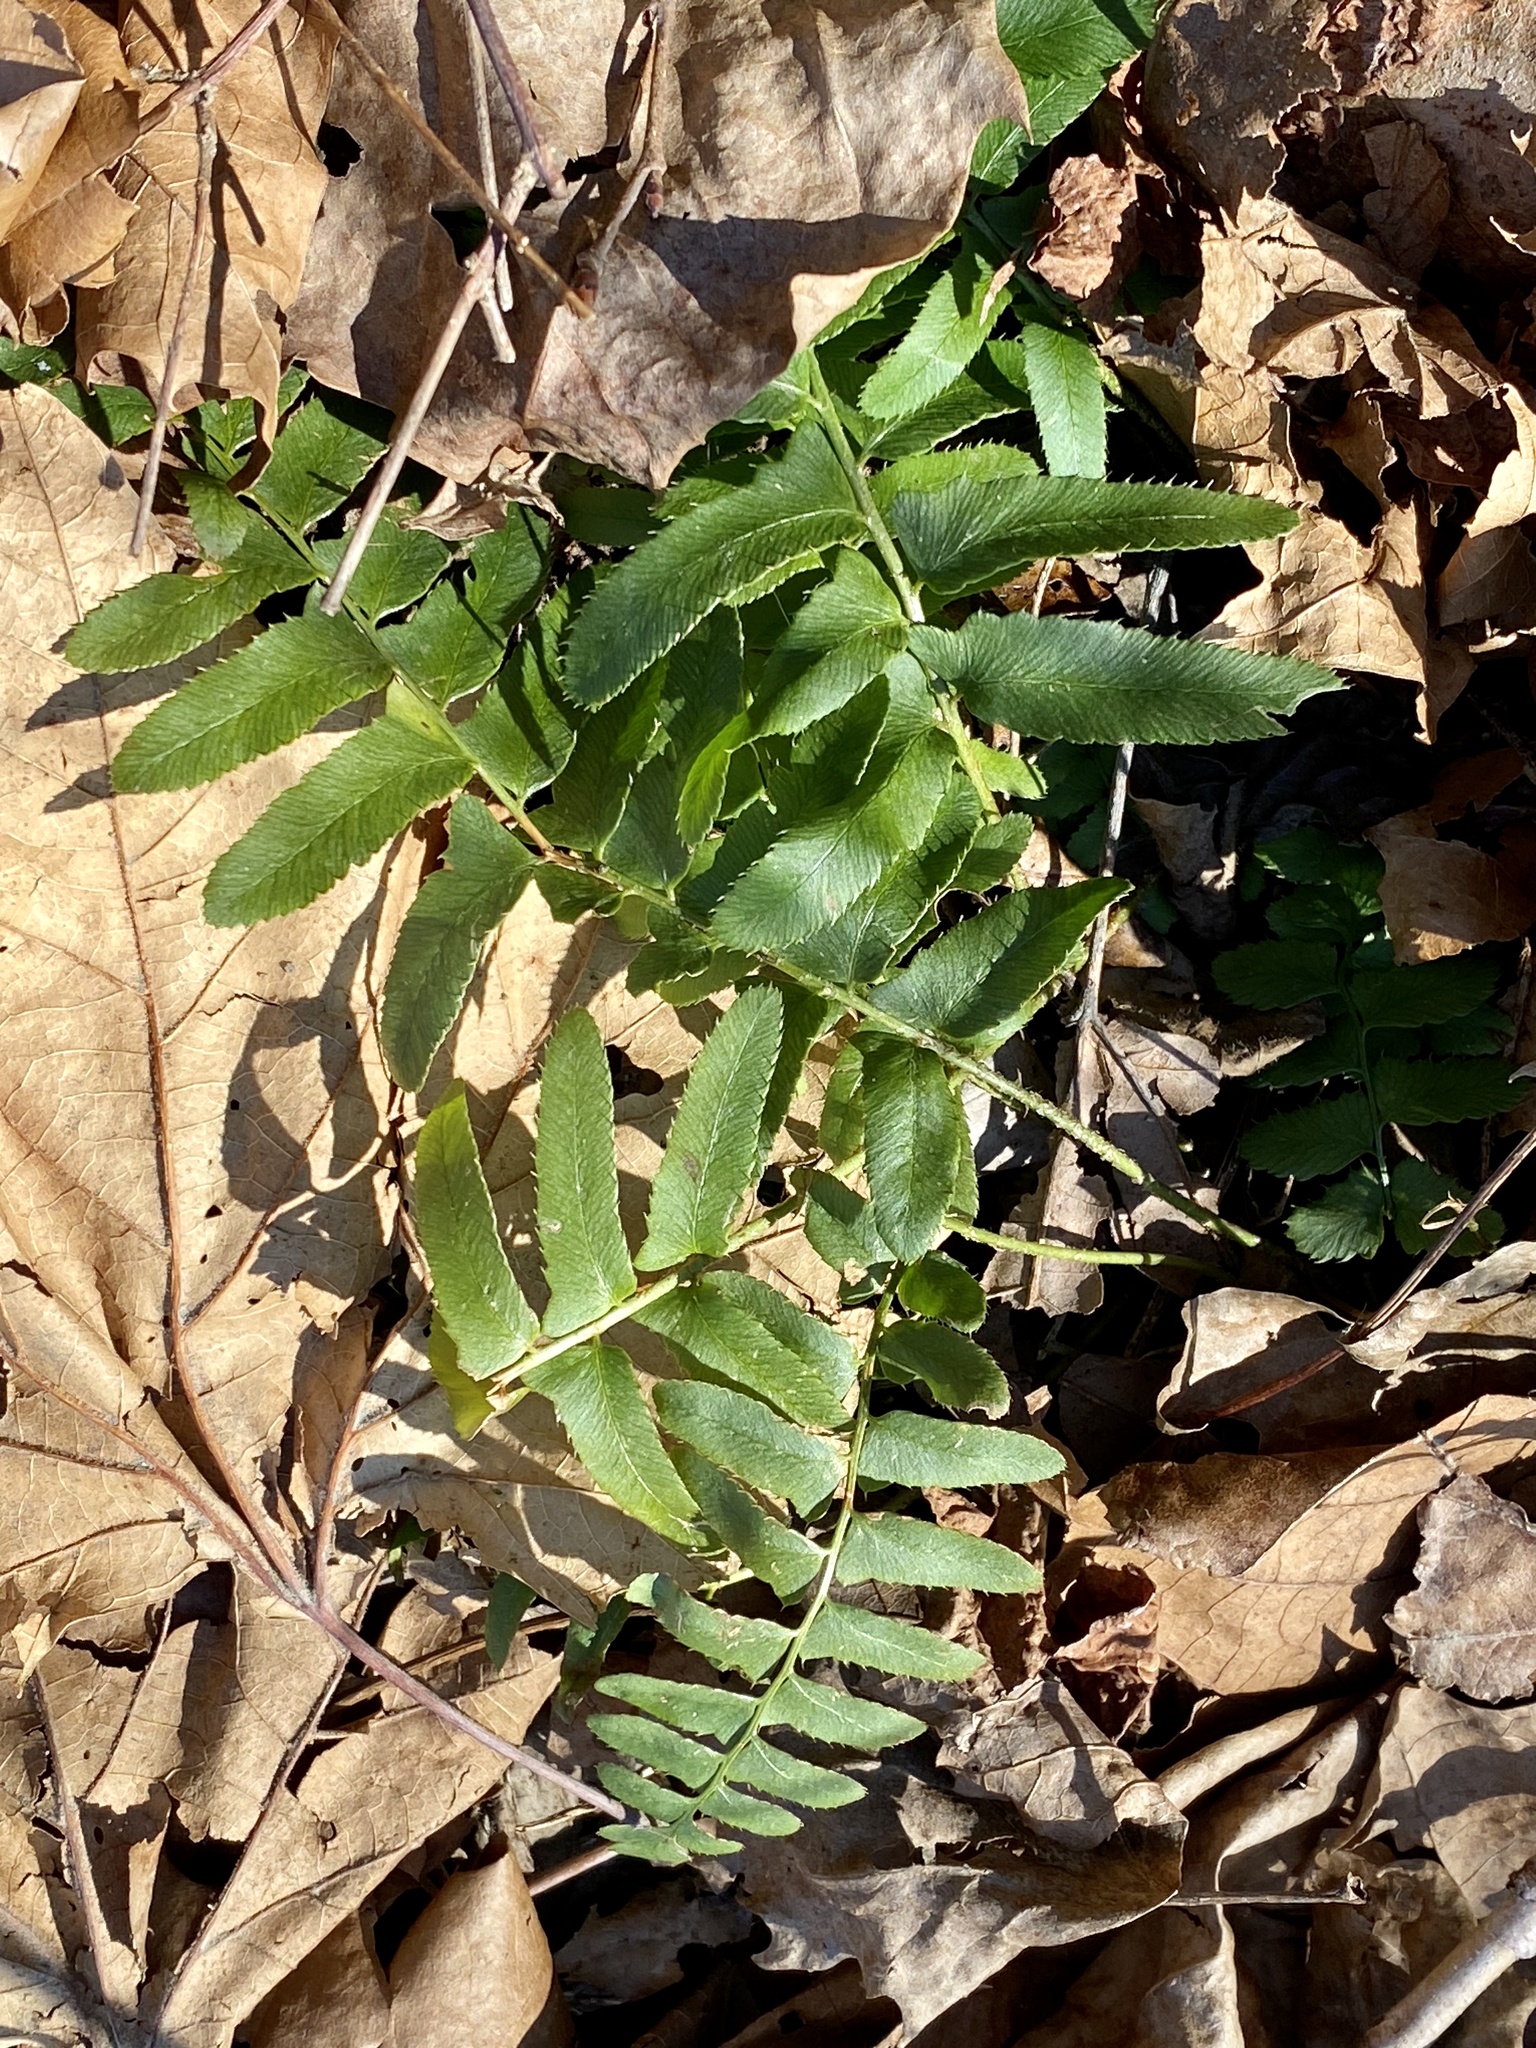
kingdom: Plantae
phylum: Tracheophyta
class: Polypodiopsida
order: Polypodiales
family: Dryopteridaceae
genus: Polystichum
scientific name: Polystichum acrostichoides
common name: Christmas fern
